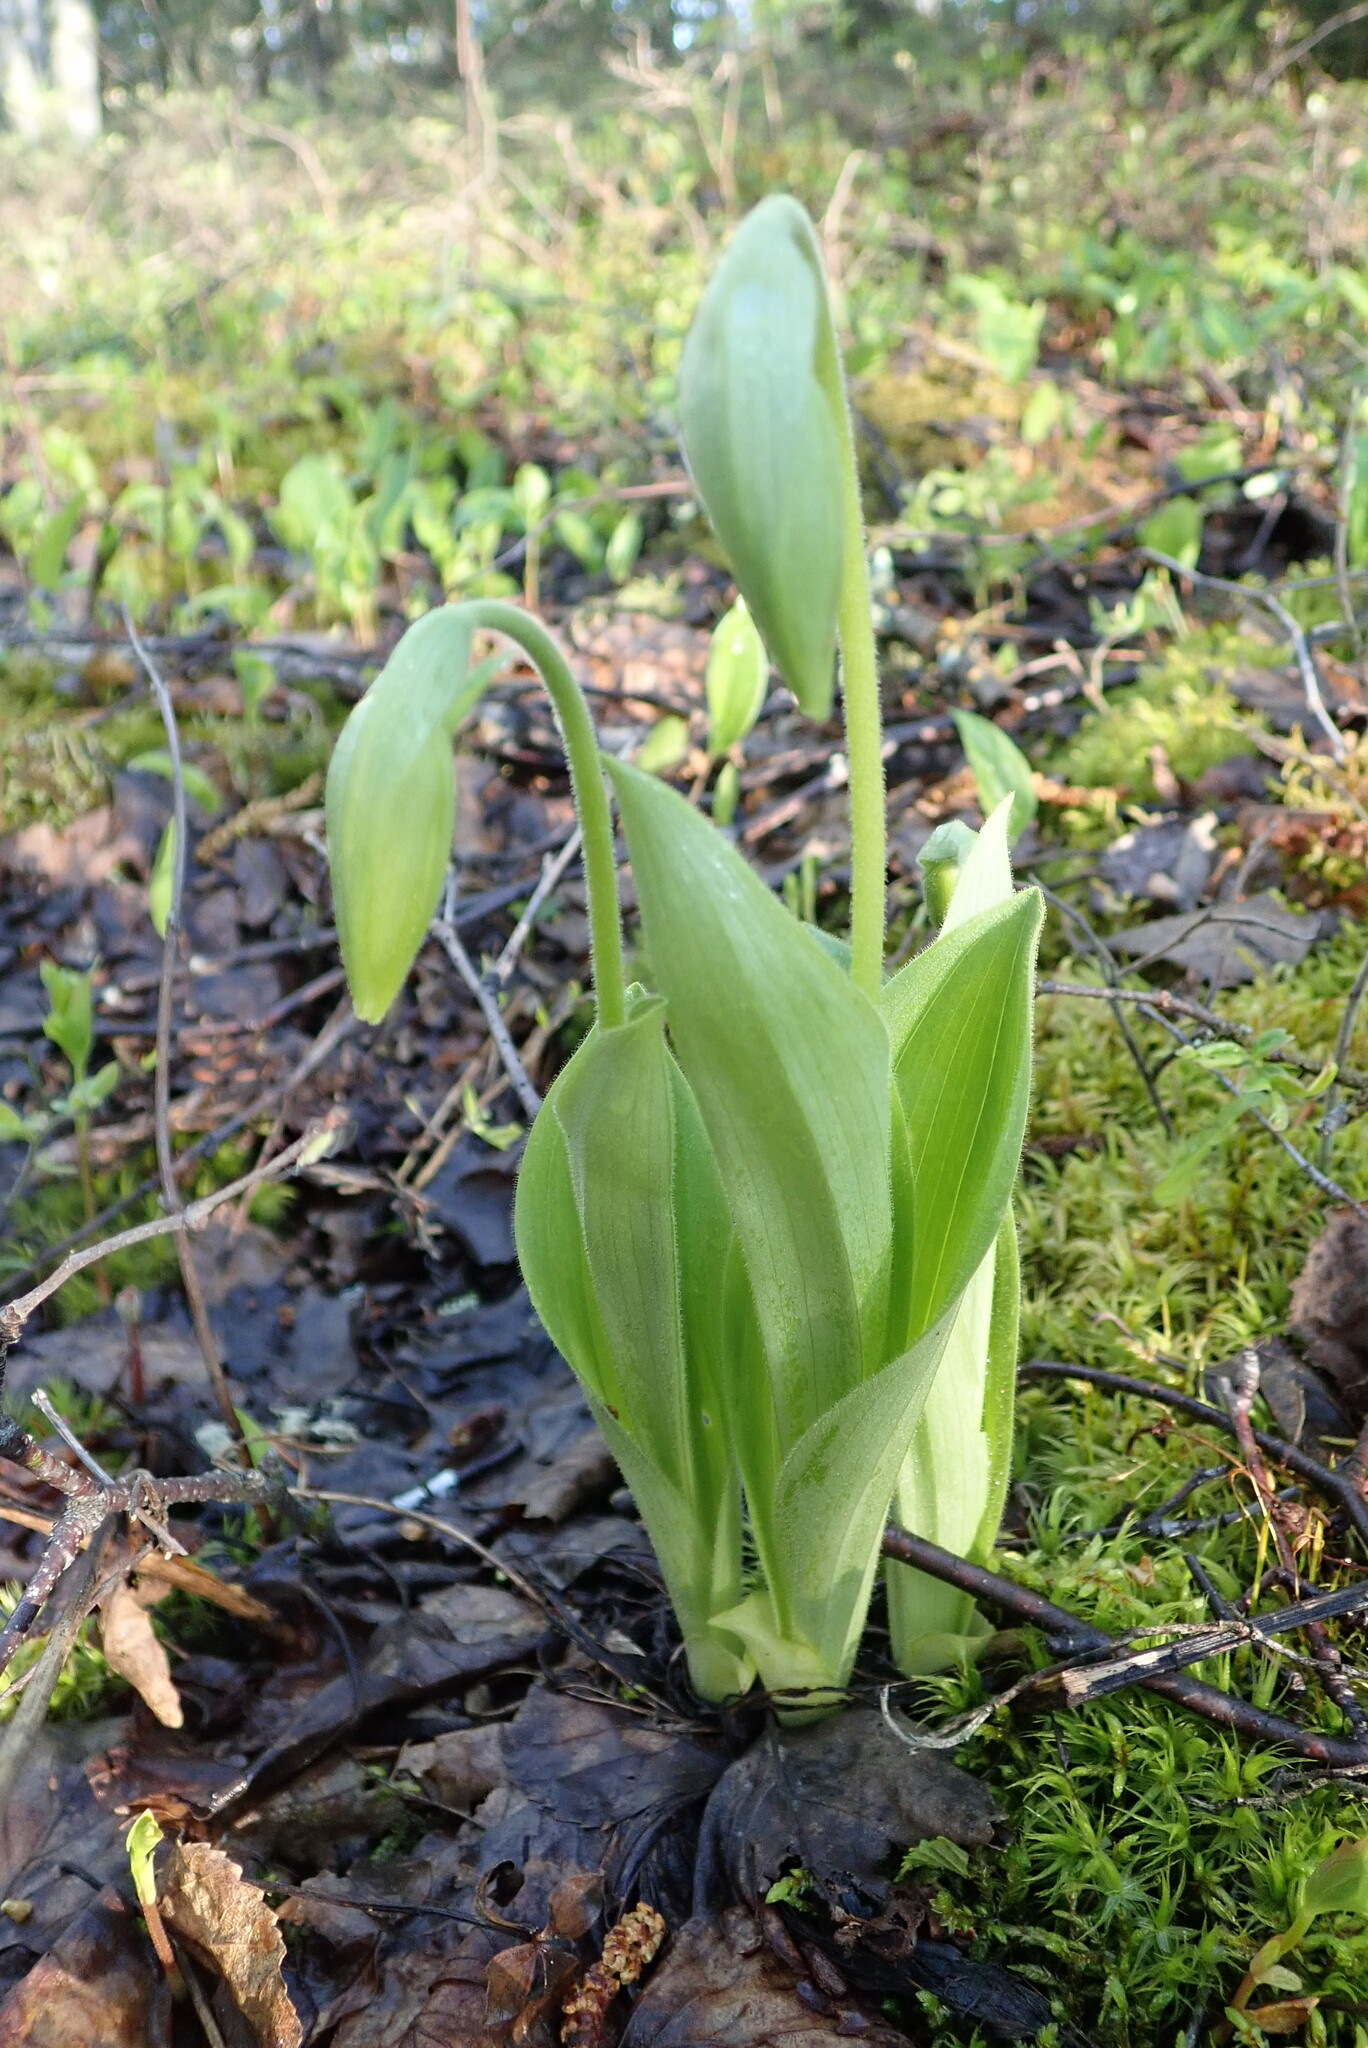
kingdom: Plantae
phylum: Tracheophyta
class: Liliopsida
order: Asparagales
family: Orchidaceae
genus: Cypripedium
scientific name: Cypripedium acaule
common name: Pink lady's-slipper
